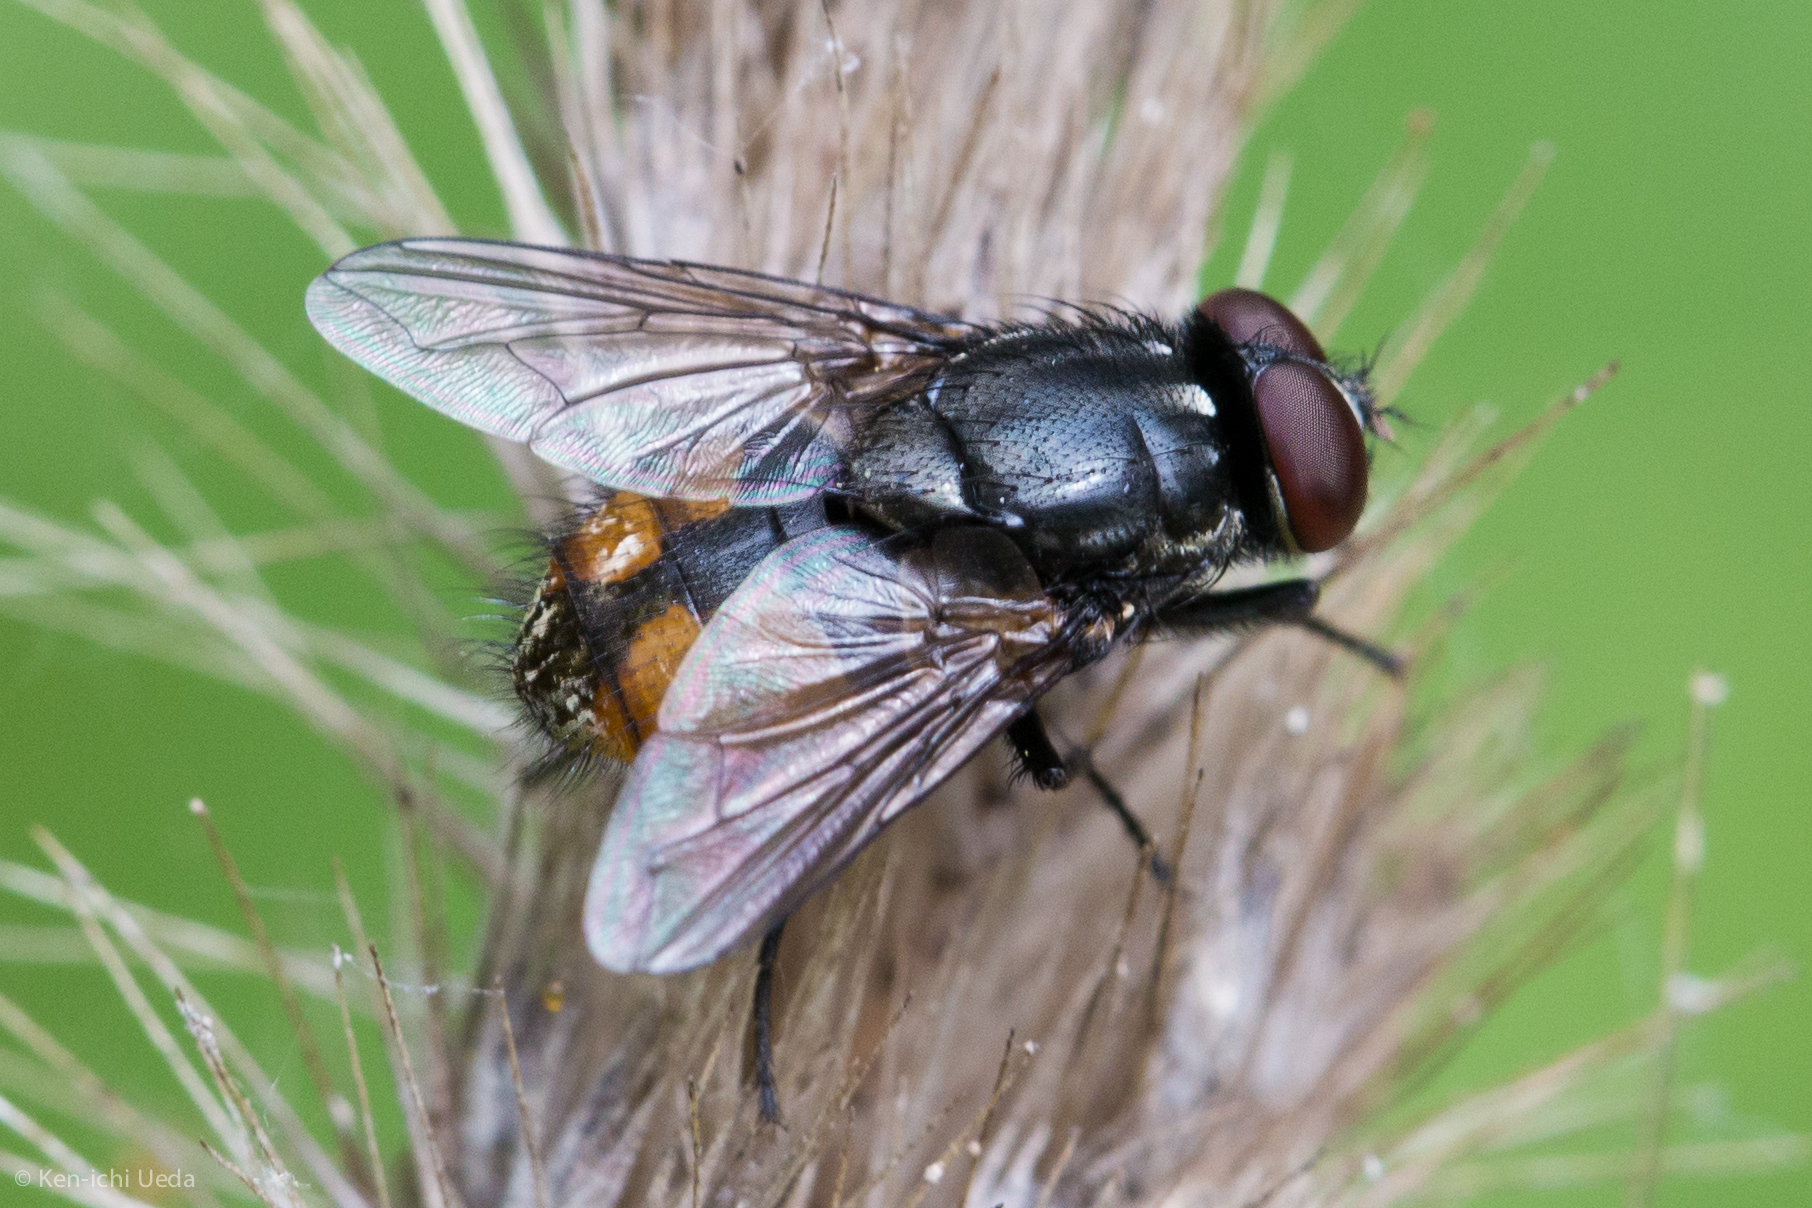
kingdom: Animalia
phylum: Arthropoda
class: Insecta
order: Diptera
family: Muscidae
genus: Musca
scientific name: Musca autumnalis
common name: Face fly
